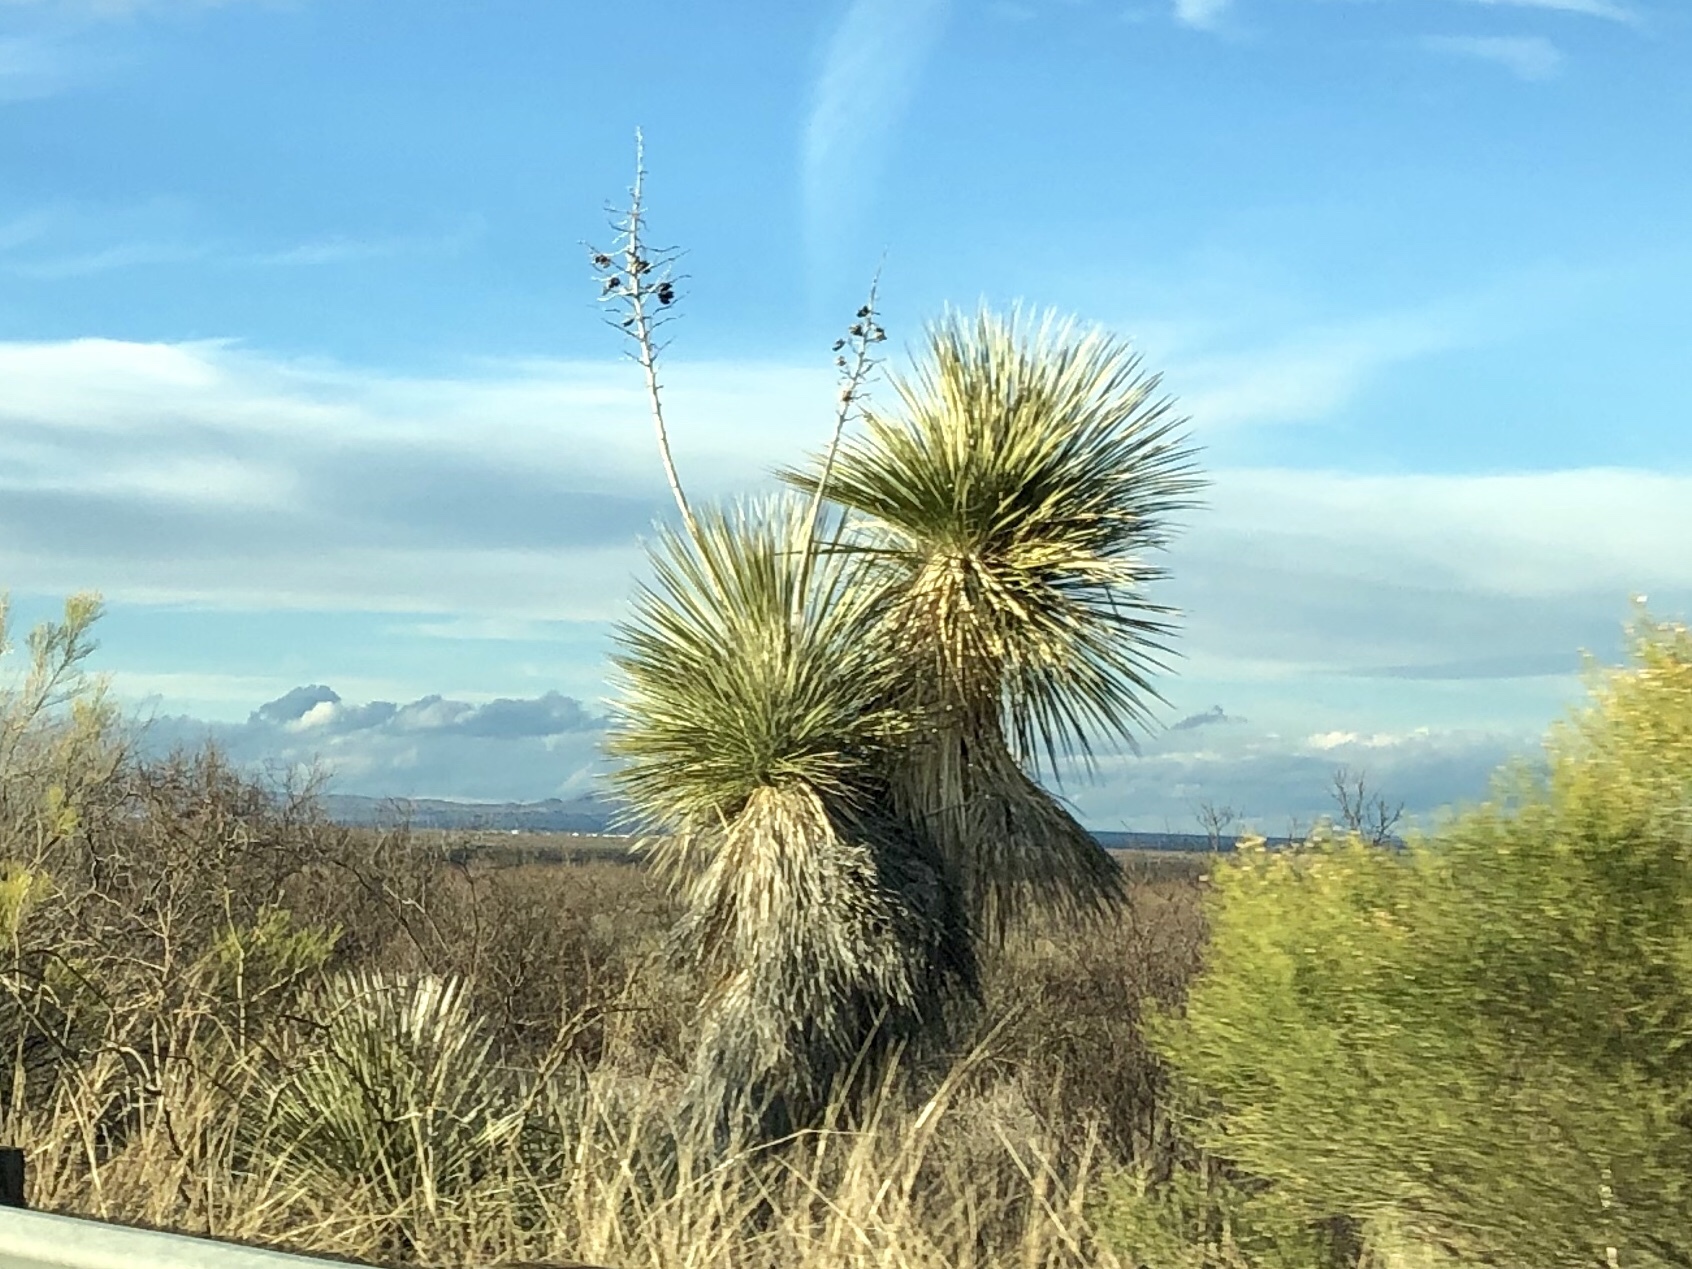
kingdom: Plantae
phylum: Tracheophyta
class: Liliopsida
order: Asparagales
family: Asparagaceae
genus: Yucca
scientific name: Yucca elata
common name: Palmella
